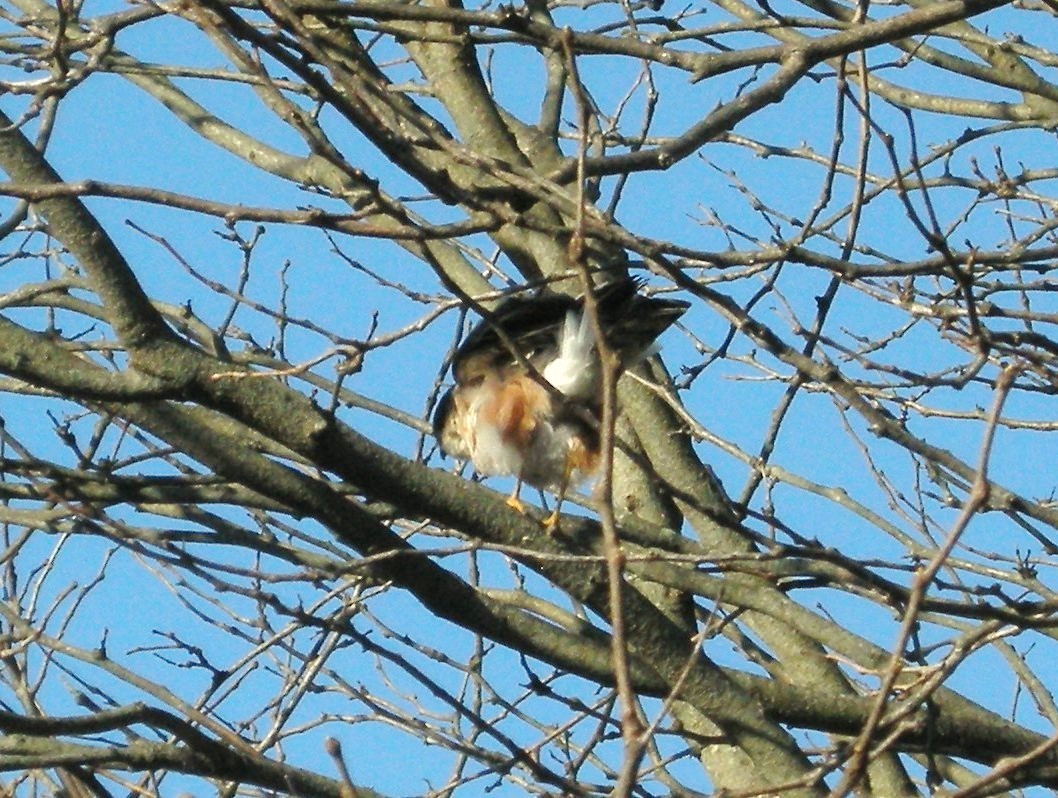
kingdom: Animalia
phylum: Chordata
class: Aves
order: Accipitriformes
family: Accipitridae
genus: Accipiter
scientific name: Accipiter striatus
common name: Sharp-shinned hawk
